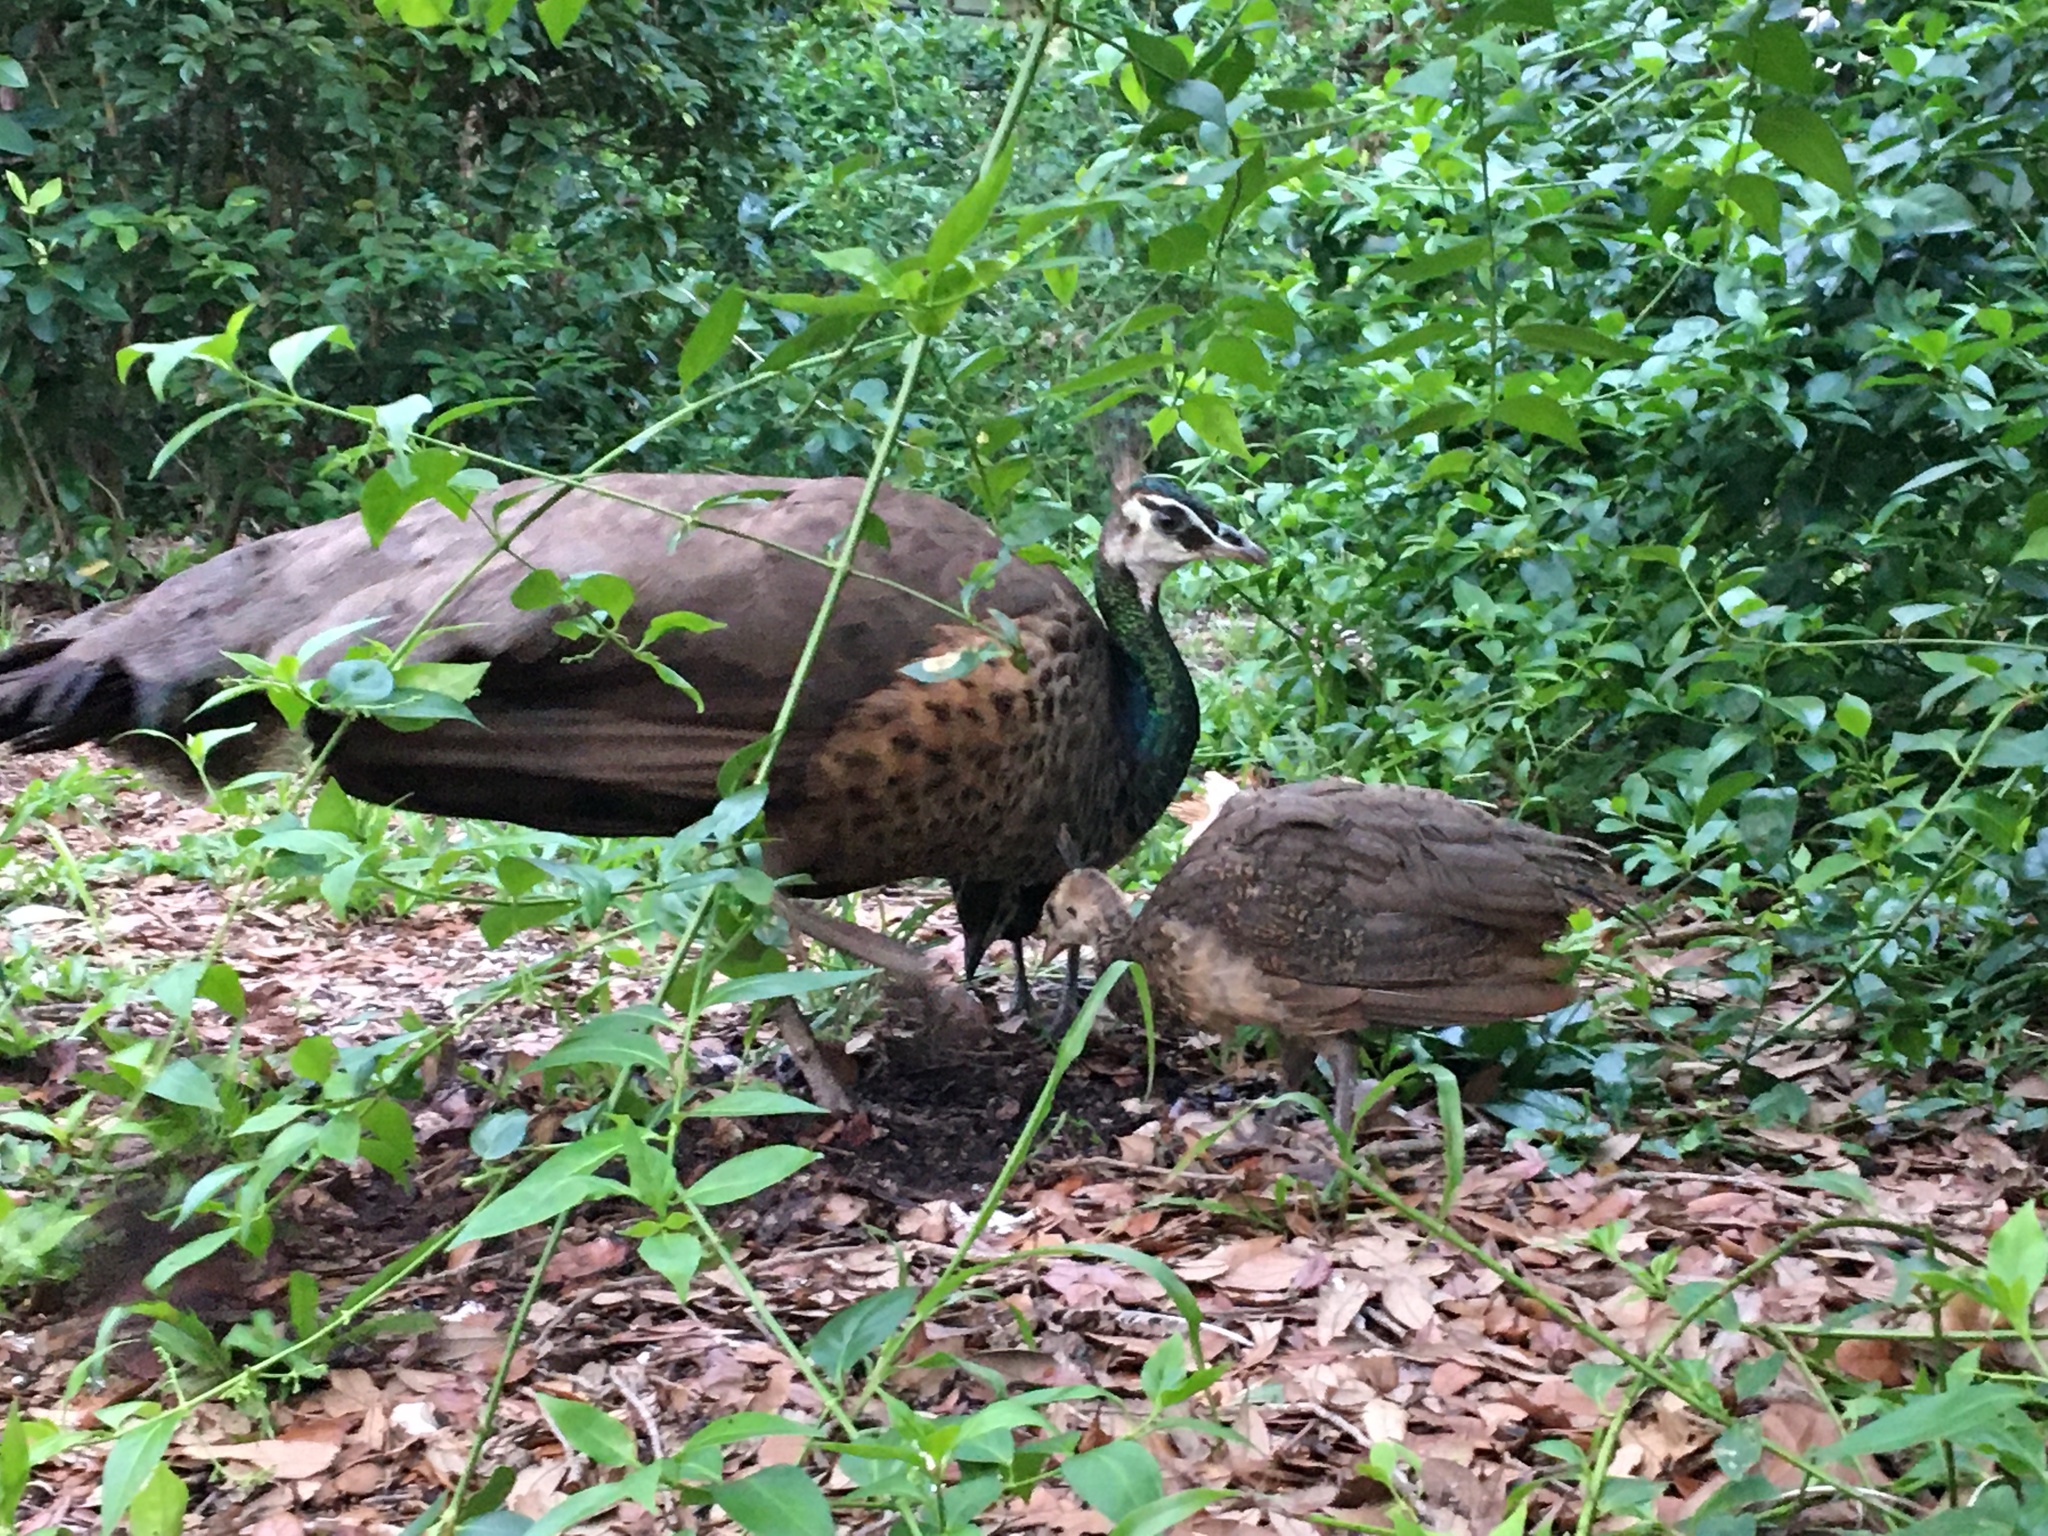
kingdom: Animalia
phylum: Chordata
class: Aves
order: Galliformes
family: Phasianidae
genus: Pavo
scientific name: Pavo cristatus
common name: Indian peafowl
